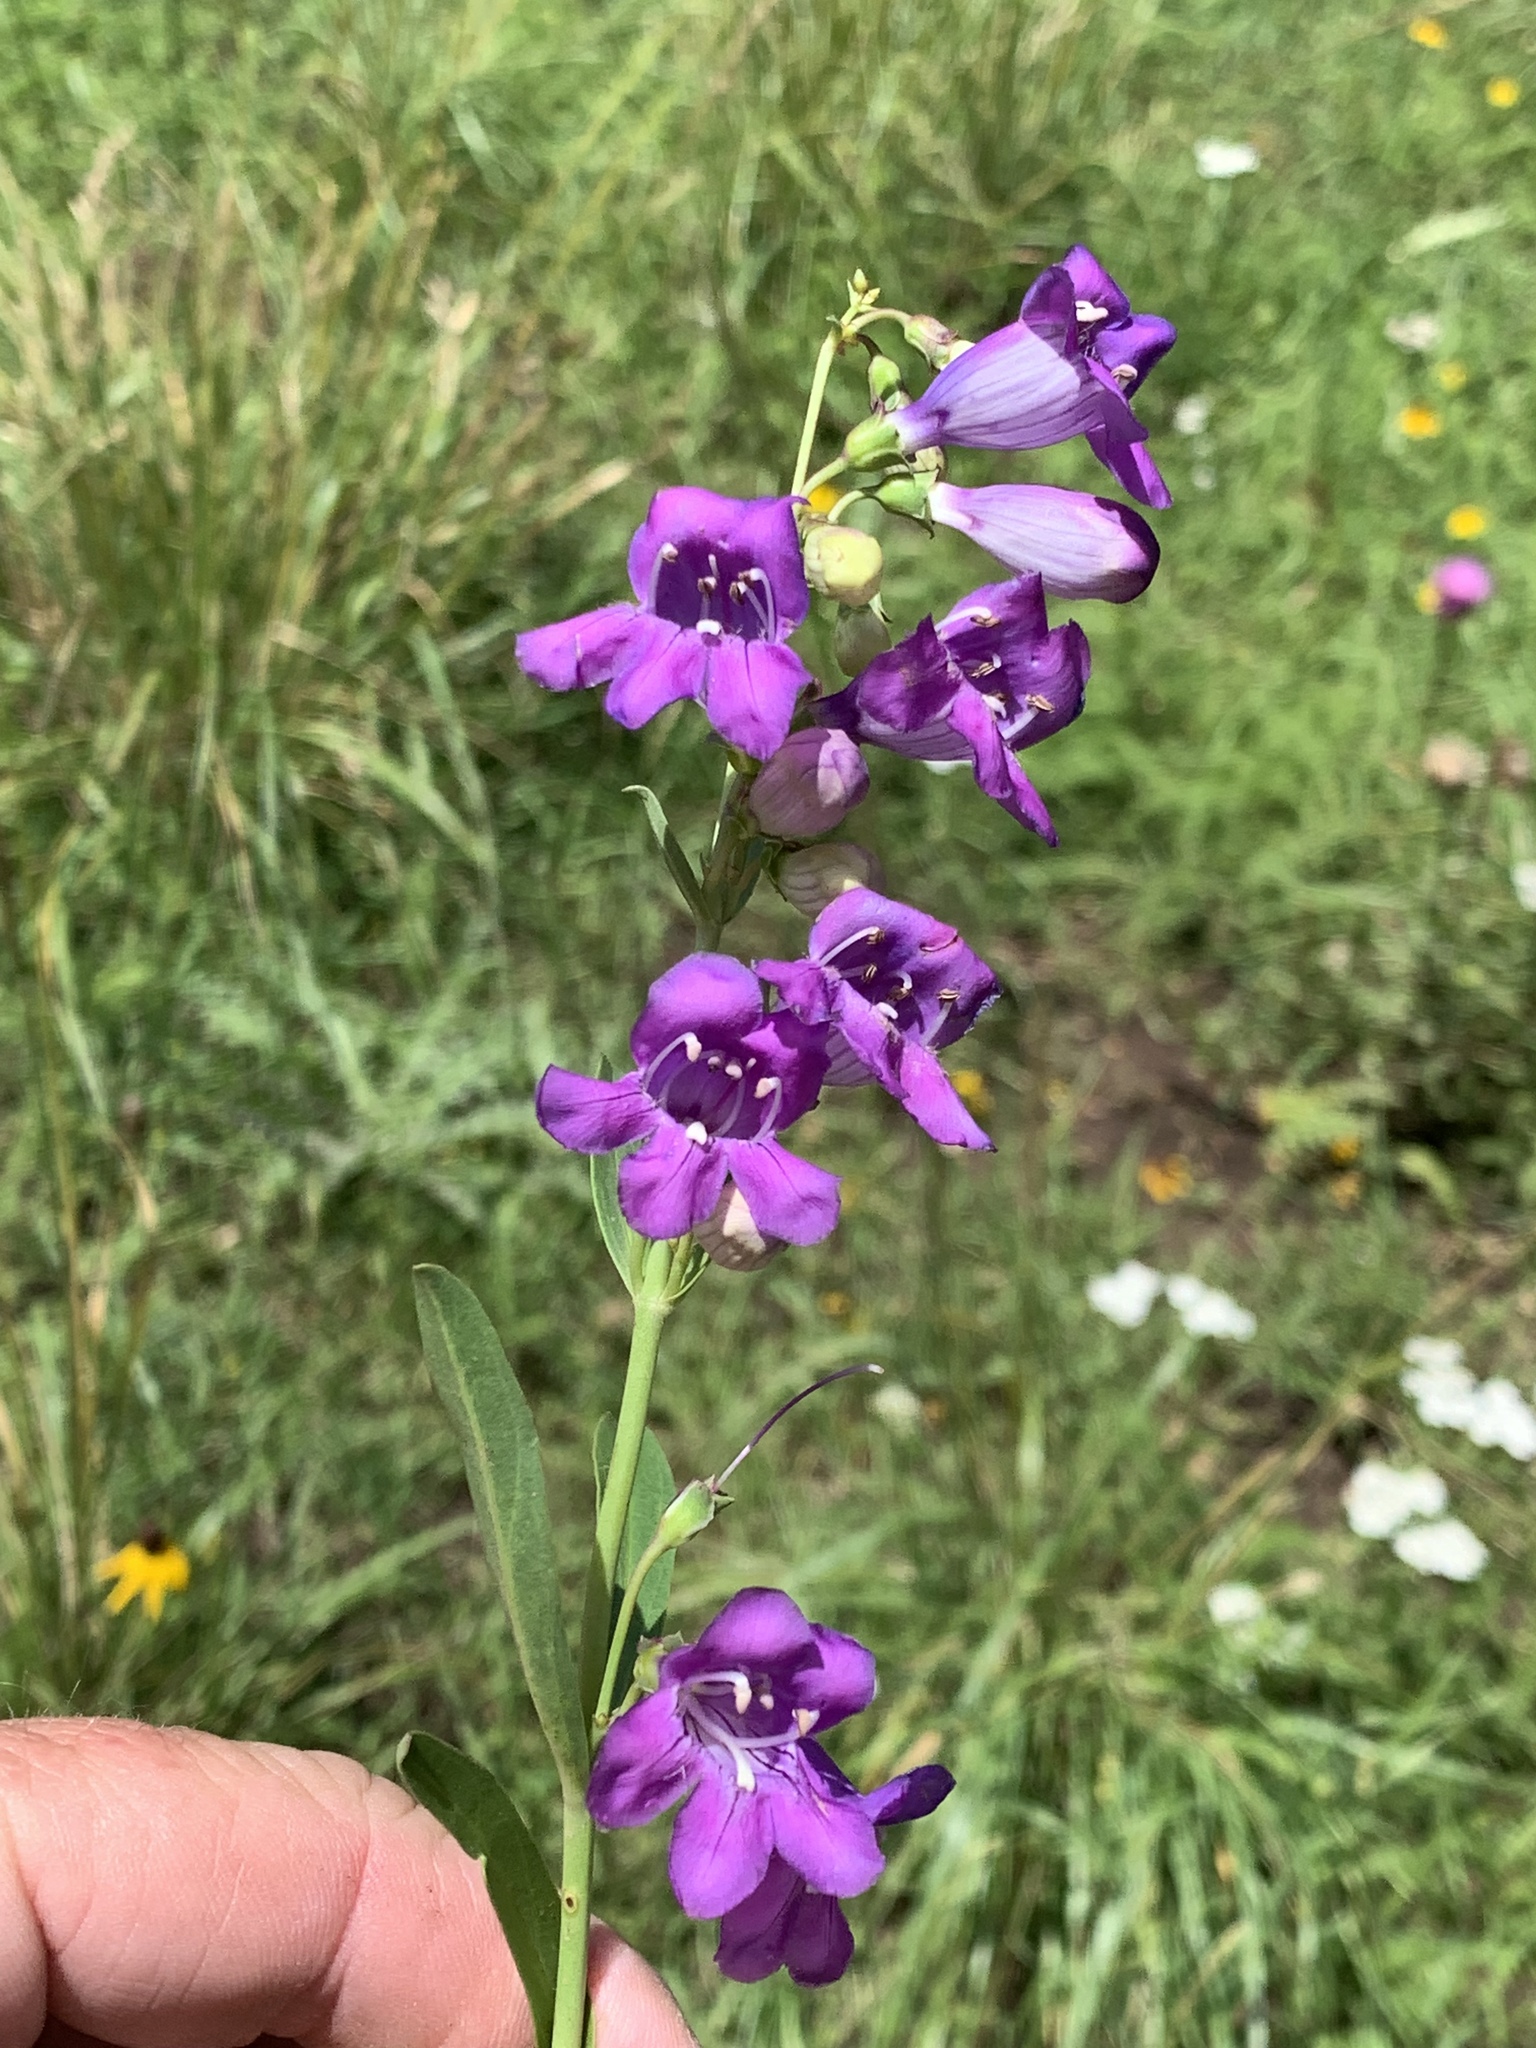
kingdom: Plantae
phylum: Tracheophyta
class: Magnoliopsida
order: Lamiales
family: Plantaginaceae
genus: Penstemon
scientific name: Penstemon neomexicanus
